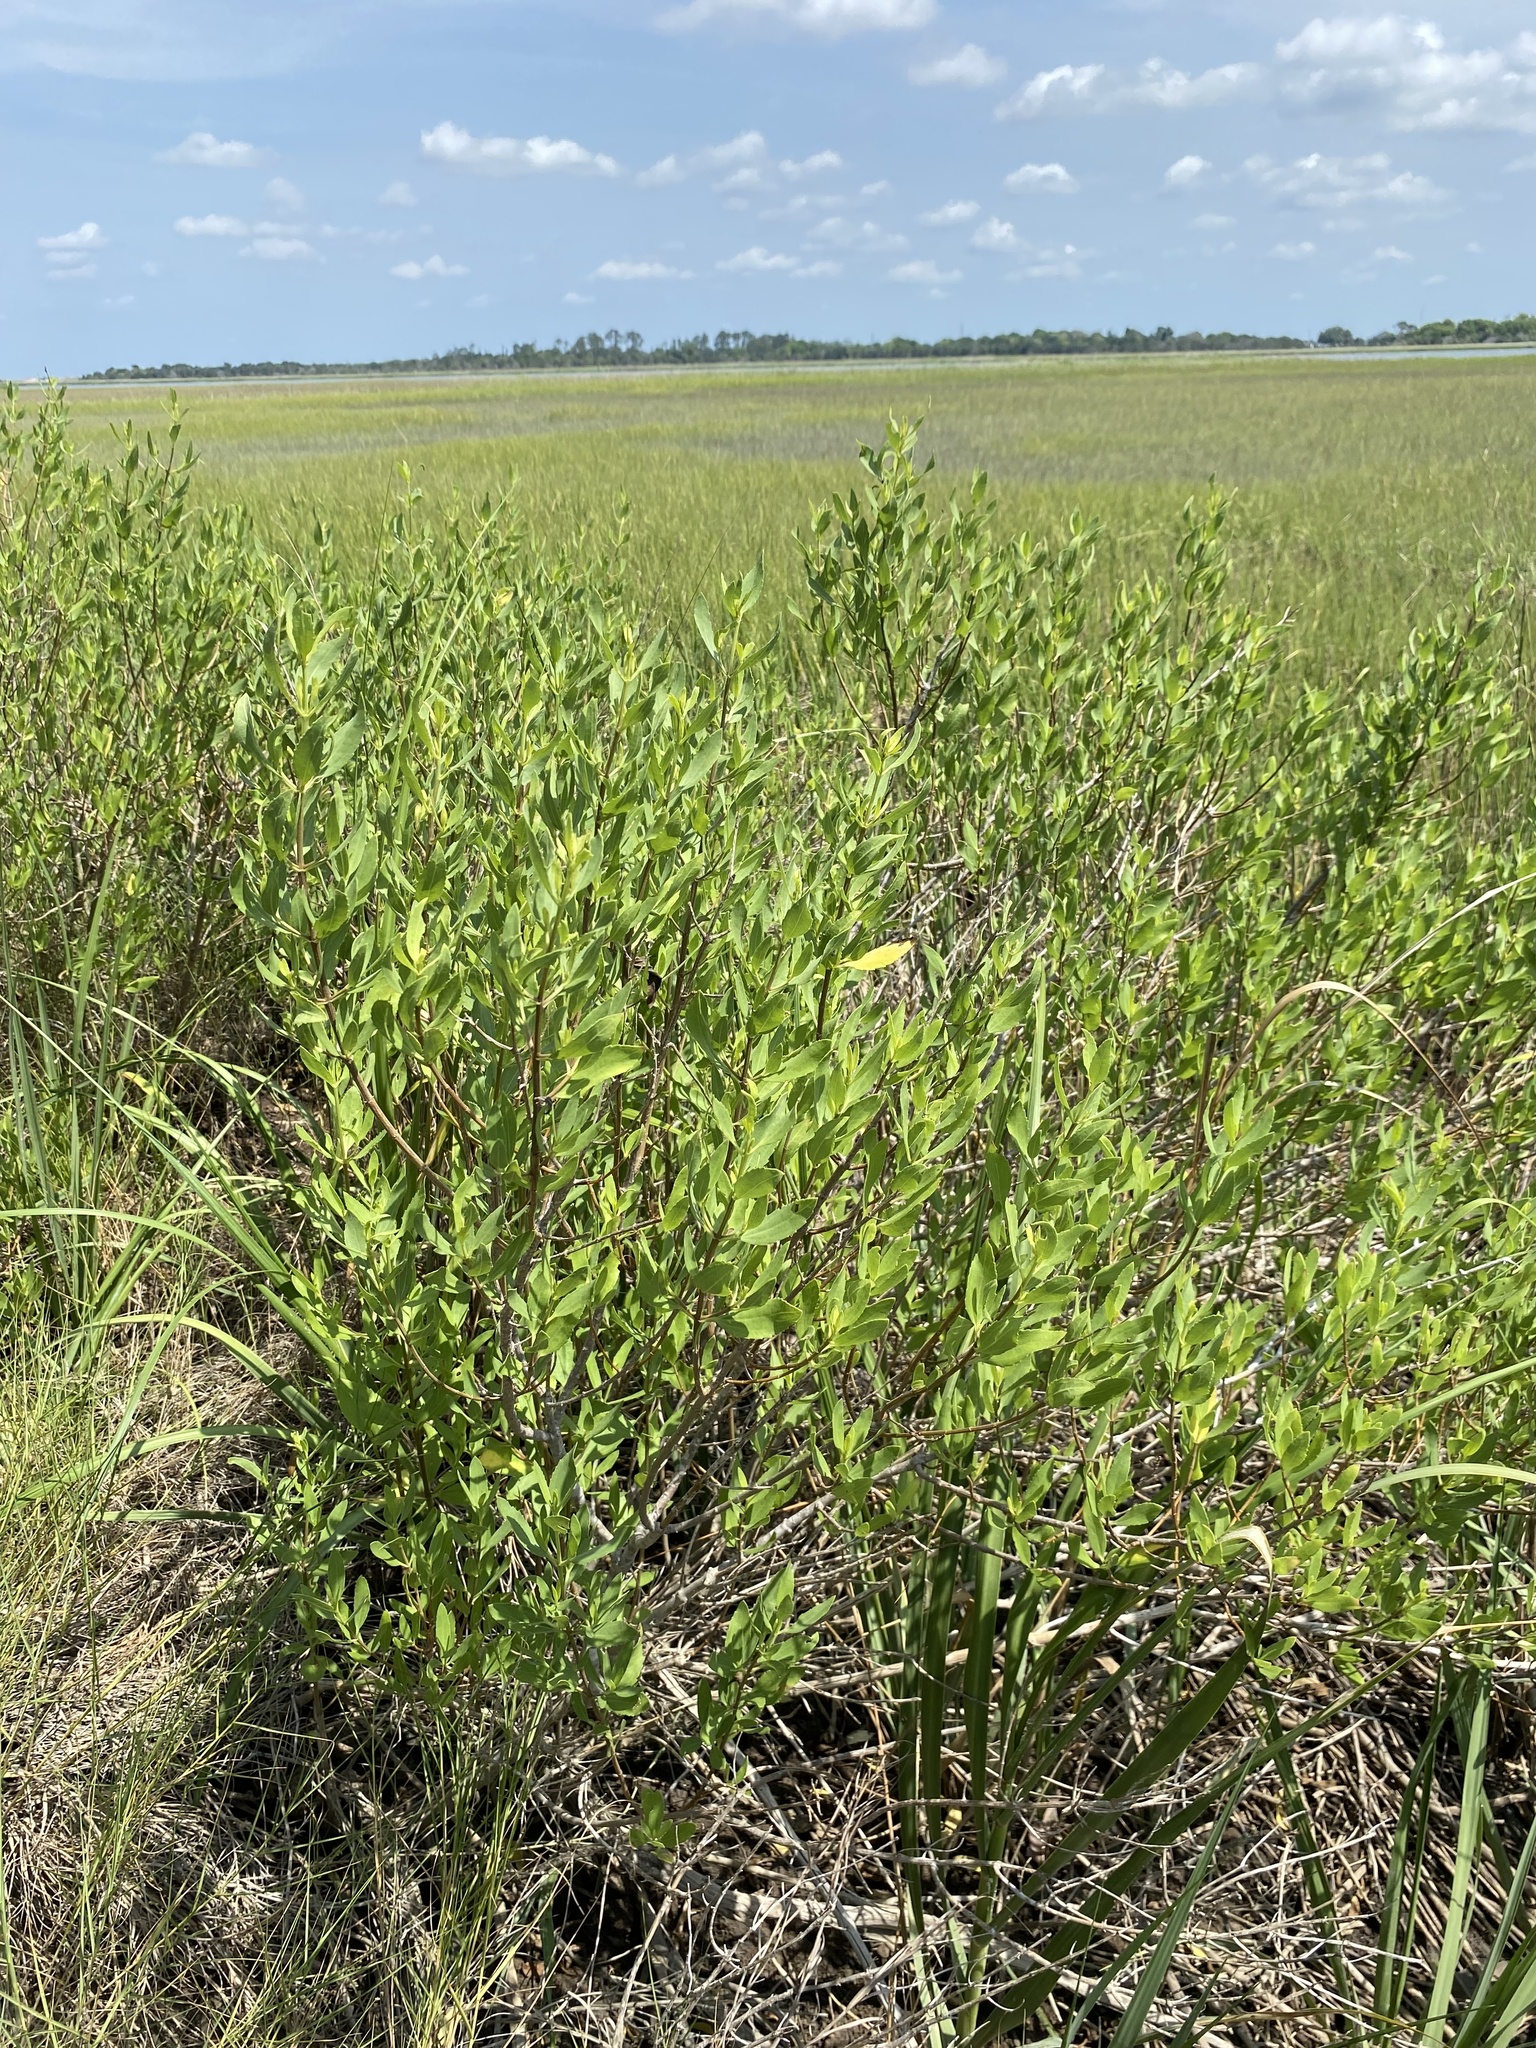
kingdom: Plantae
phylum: Tracheophyta
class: Magnoliopsida
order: Asterales
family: Asteraceae
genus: Iva
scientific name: Iva frutescens
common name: Big-leaved marsh-elder
